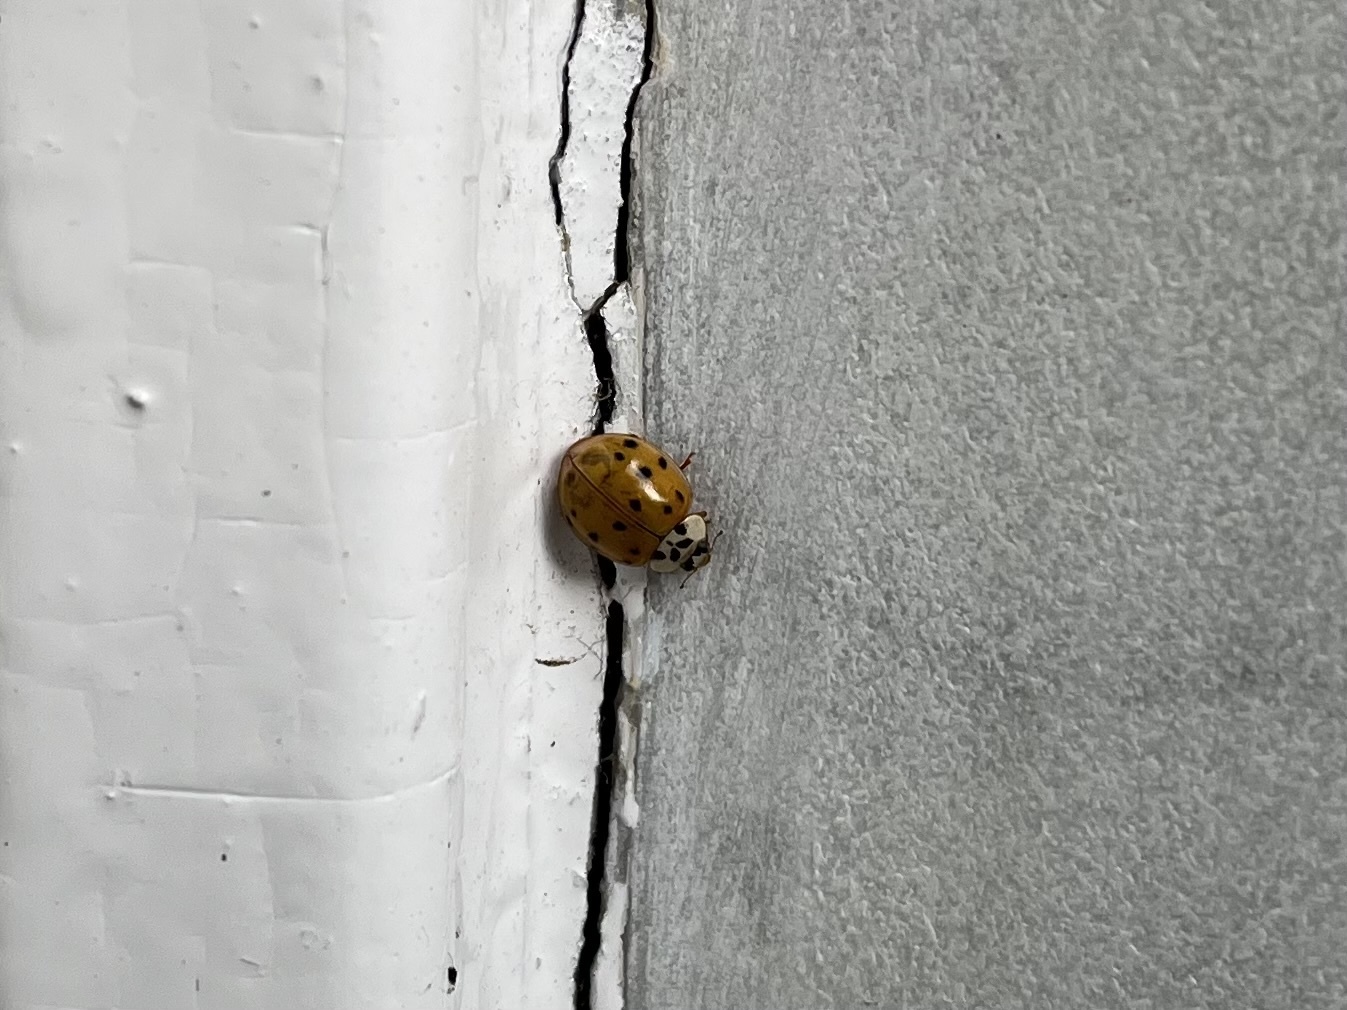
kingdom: Animalia
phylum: Arthropoda
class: Insecta
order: Coleoptera
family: Coccinellidae
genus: Harmonia
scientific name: Harmonia axyridis
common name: Harlequin ladybird
